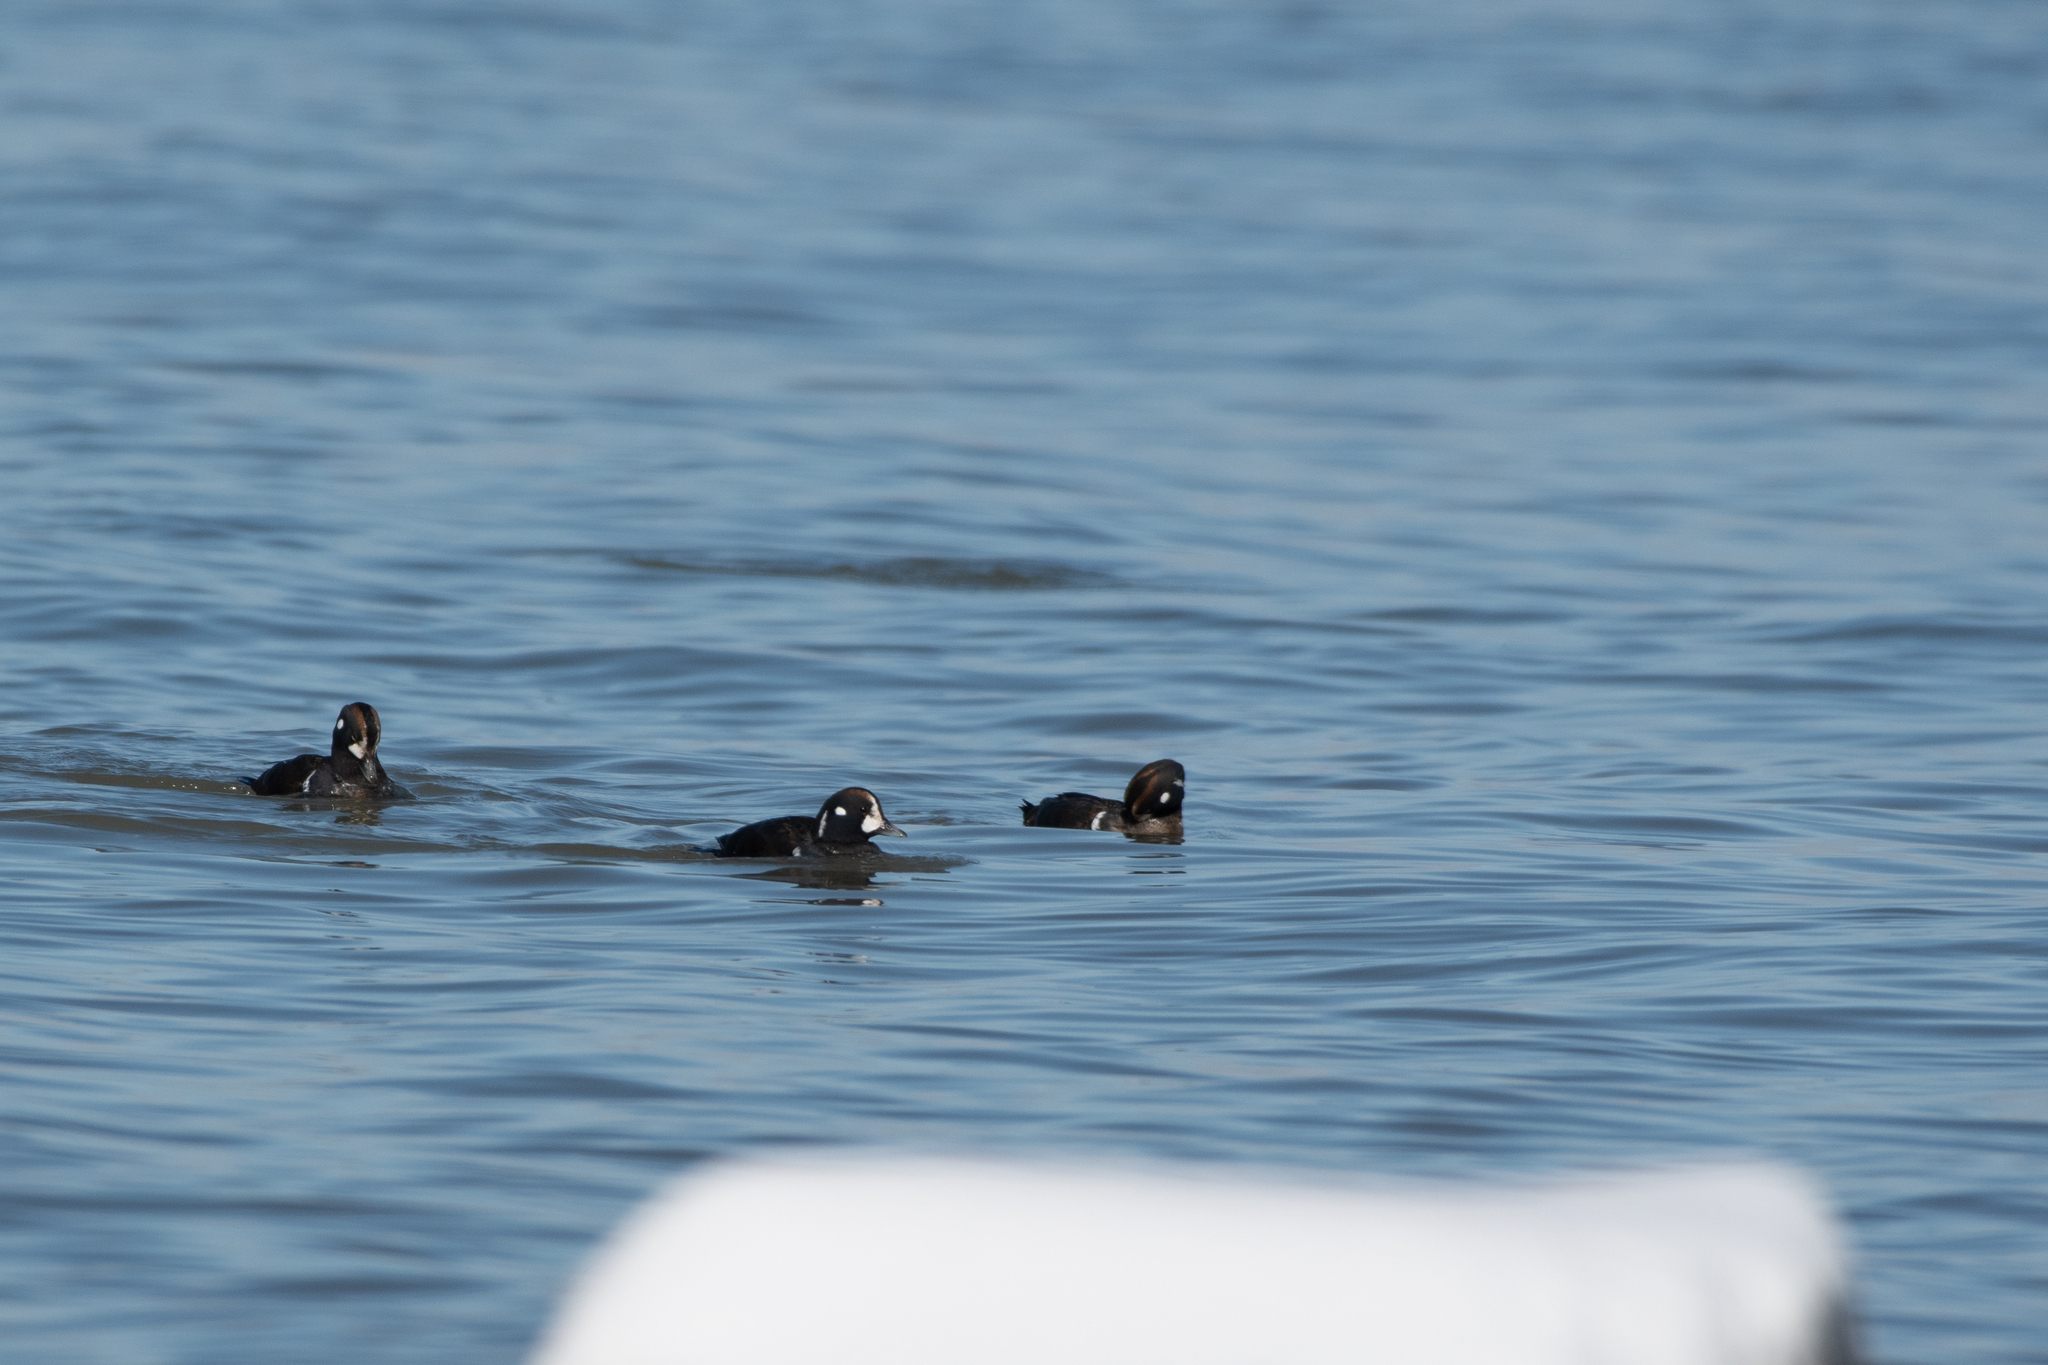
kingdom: Animalia
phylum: Chordata
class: Aves
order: Anseriformes
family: Anatidae
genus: Histrionicus
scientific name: Histrionicus histrionicus
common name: Harlequin duck
